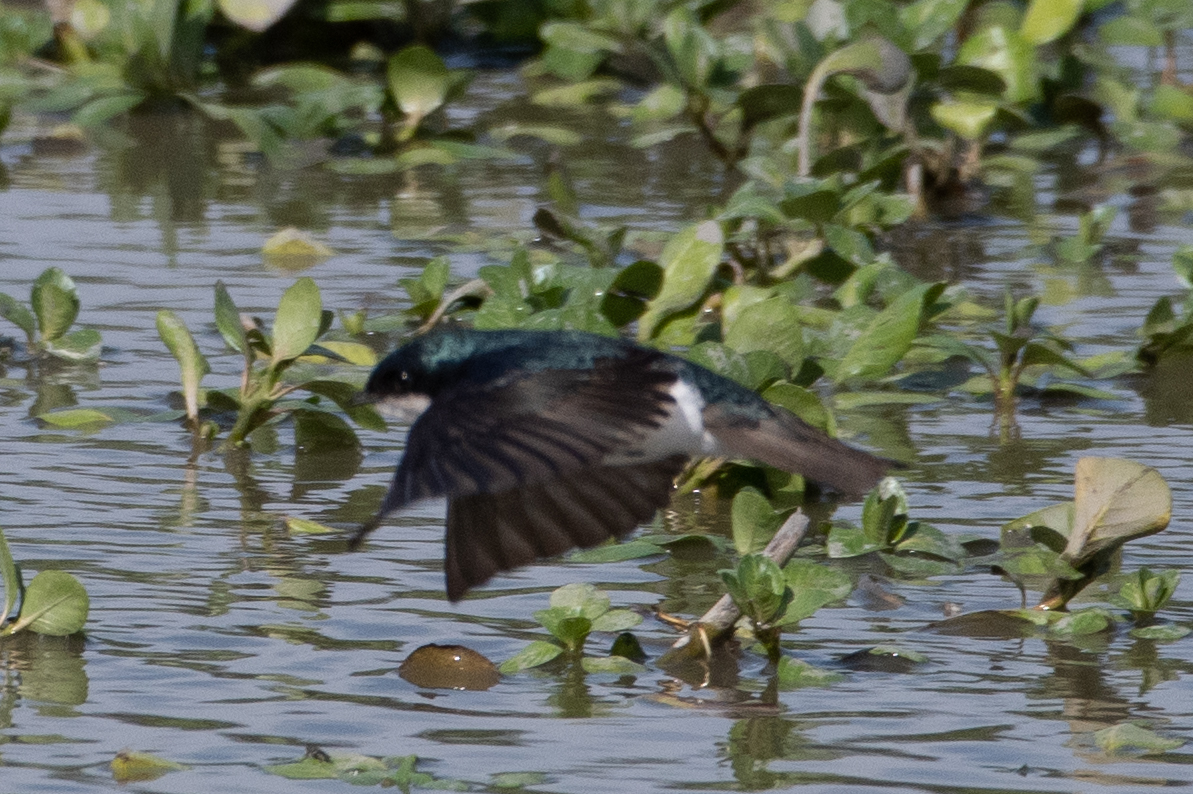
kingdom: Animalia
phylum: Chordata
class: Aves
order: Passeriformes
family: Hirundinidae
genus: Tachycineta
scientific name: Tachycineta bicolor
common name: Tree swallow
